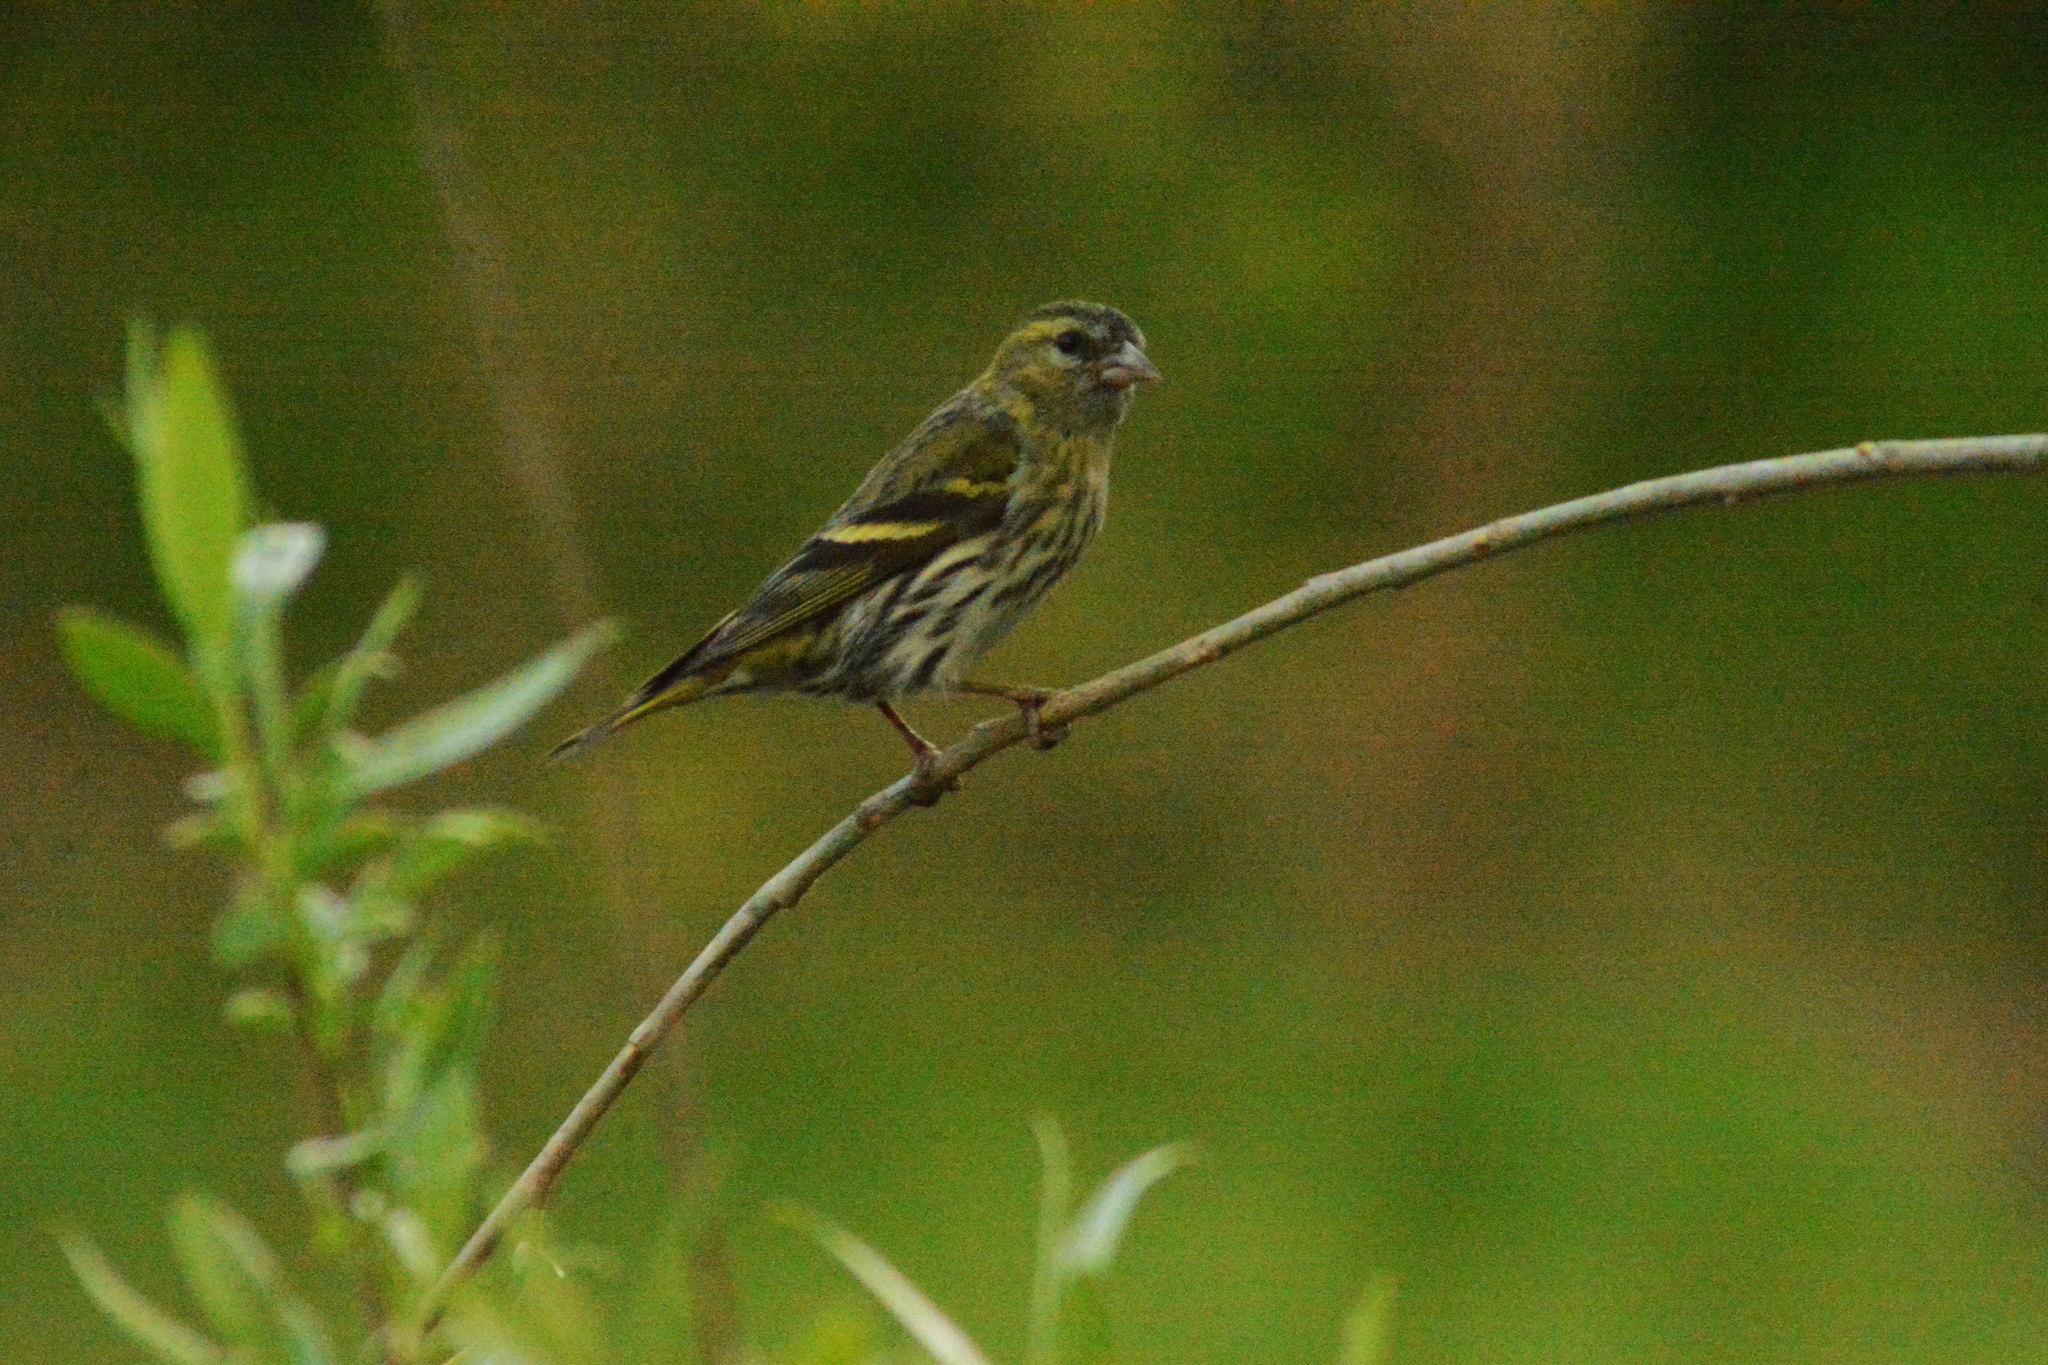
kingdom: Animalia
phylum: Chordata
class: Aves
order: Passeriformes
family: Fringillidae
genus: Spinus
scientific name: Spinus spinus
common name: Eurasian siskin
